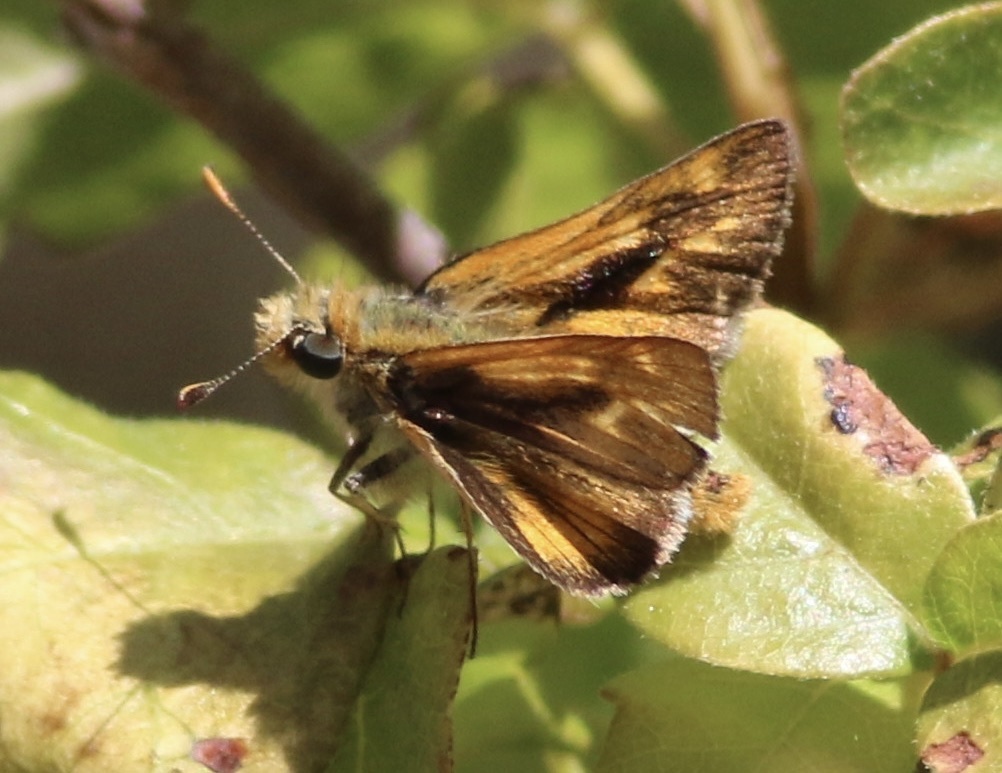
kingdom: Animalia
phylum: Arthropoda
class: Insecta
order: Lepidoptera
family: Hesperiidae
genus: Ochlodes
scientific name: Ochlodes agricola
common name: Rural skipper
